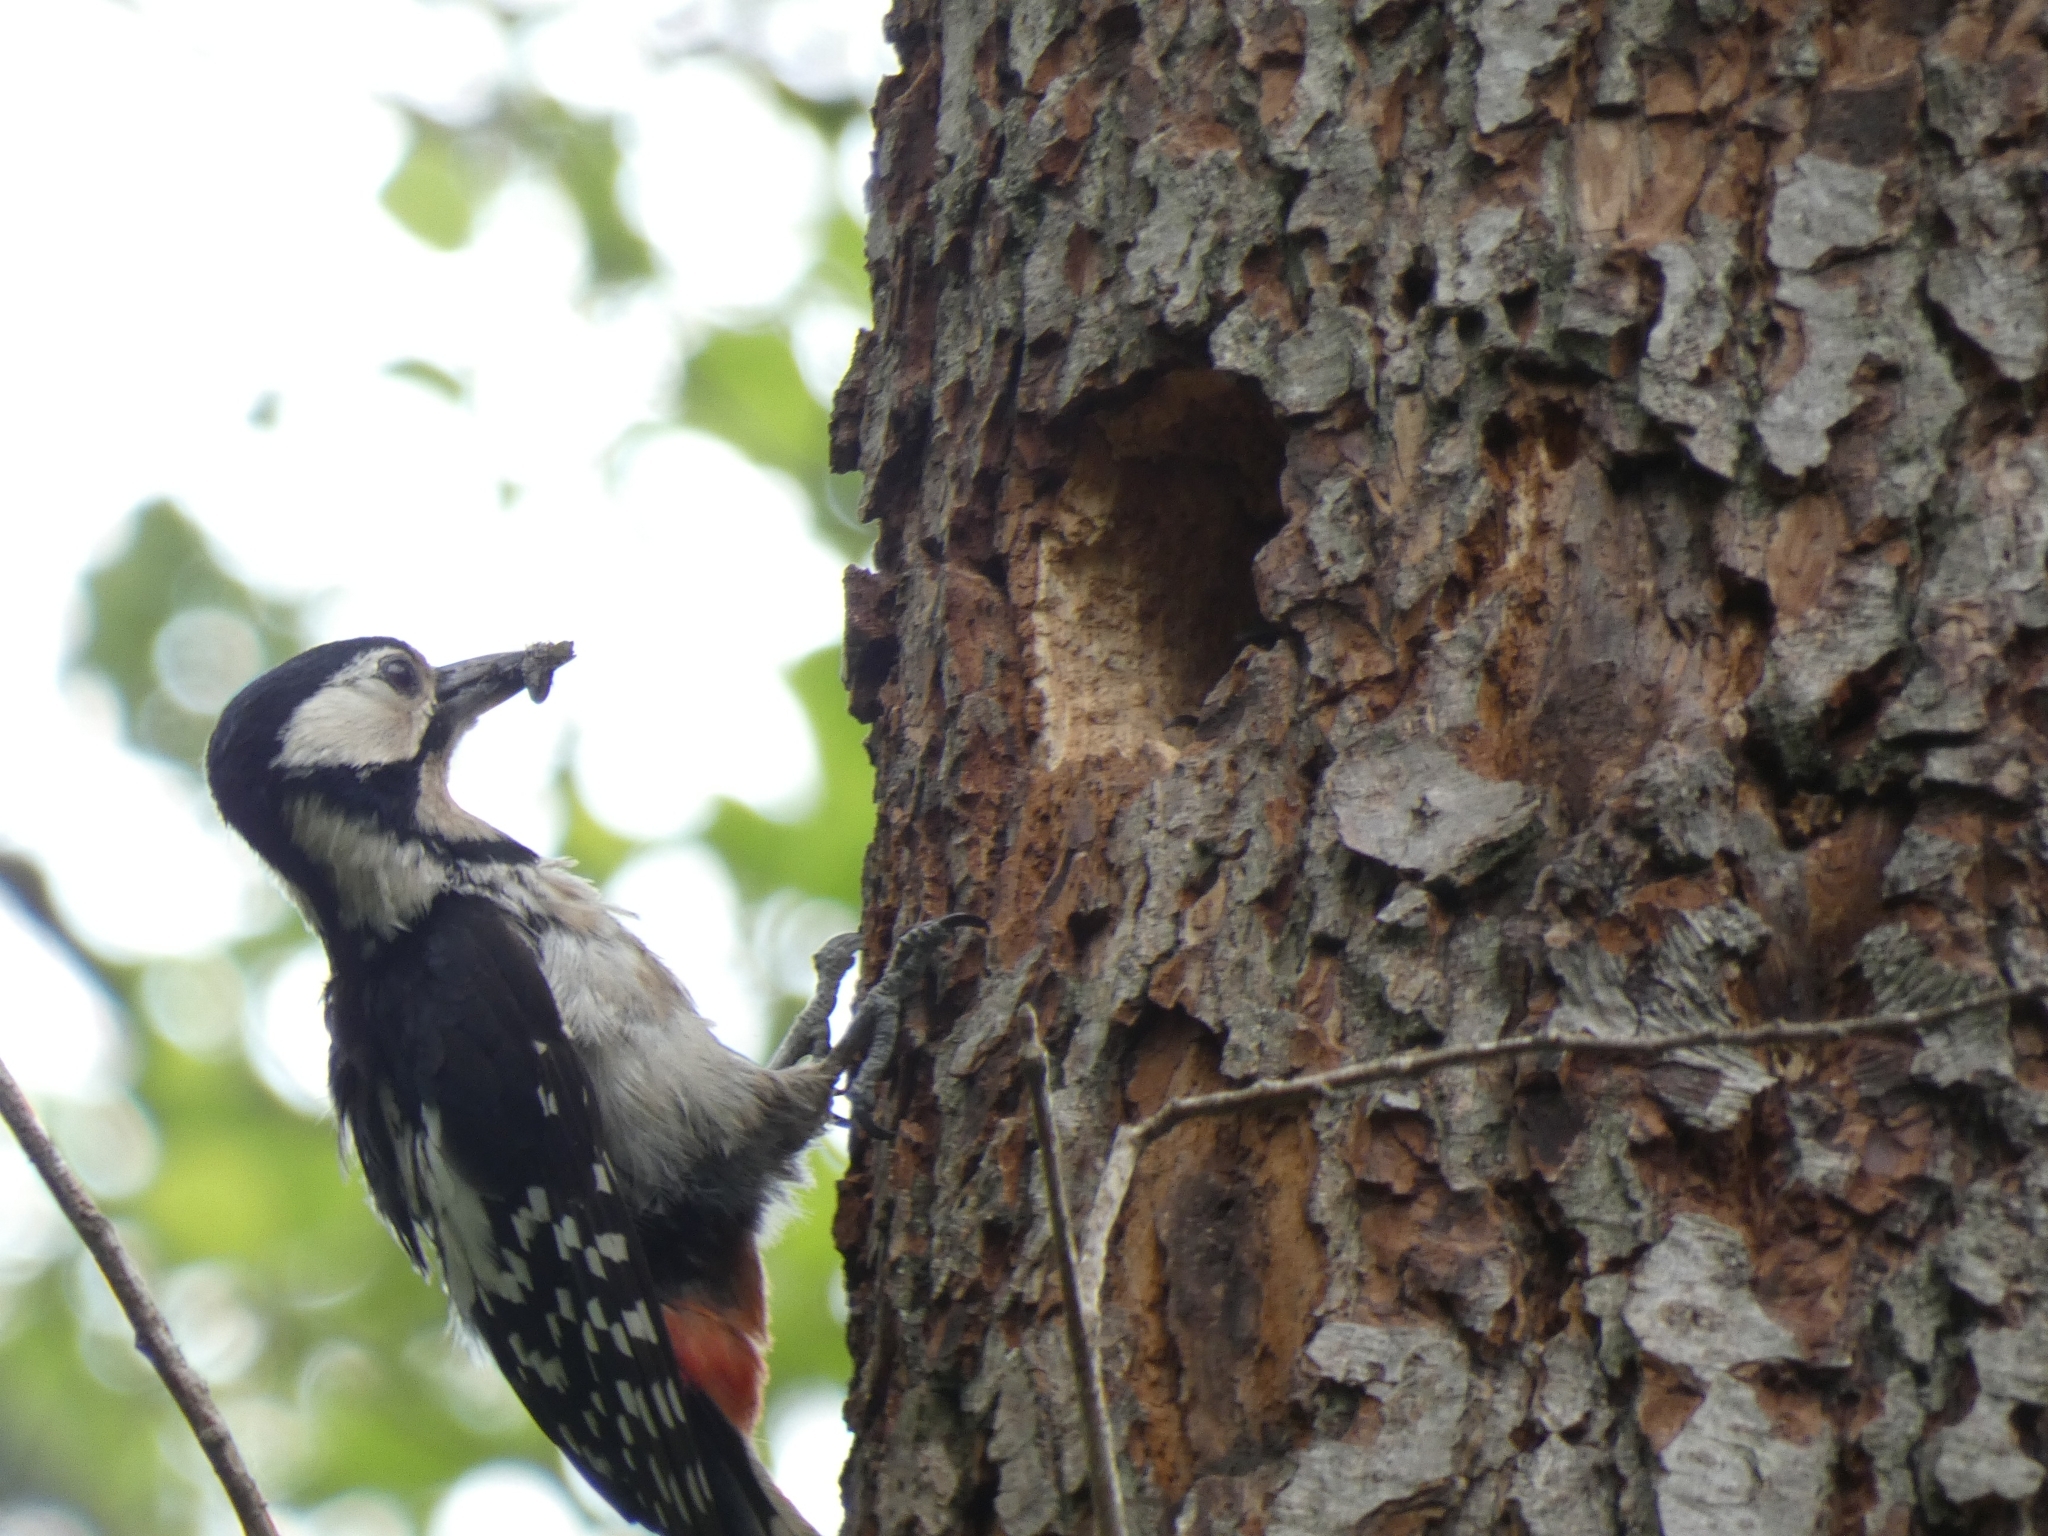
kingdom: Animalia
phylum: Chordata
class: Aves
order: Piciformes
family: Picidae
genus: Dendrocopos
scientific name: Dendrocopos major
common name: Great spotted woodpecker
